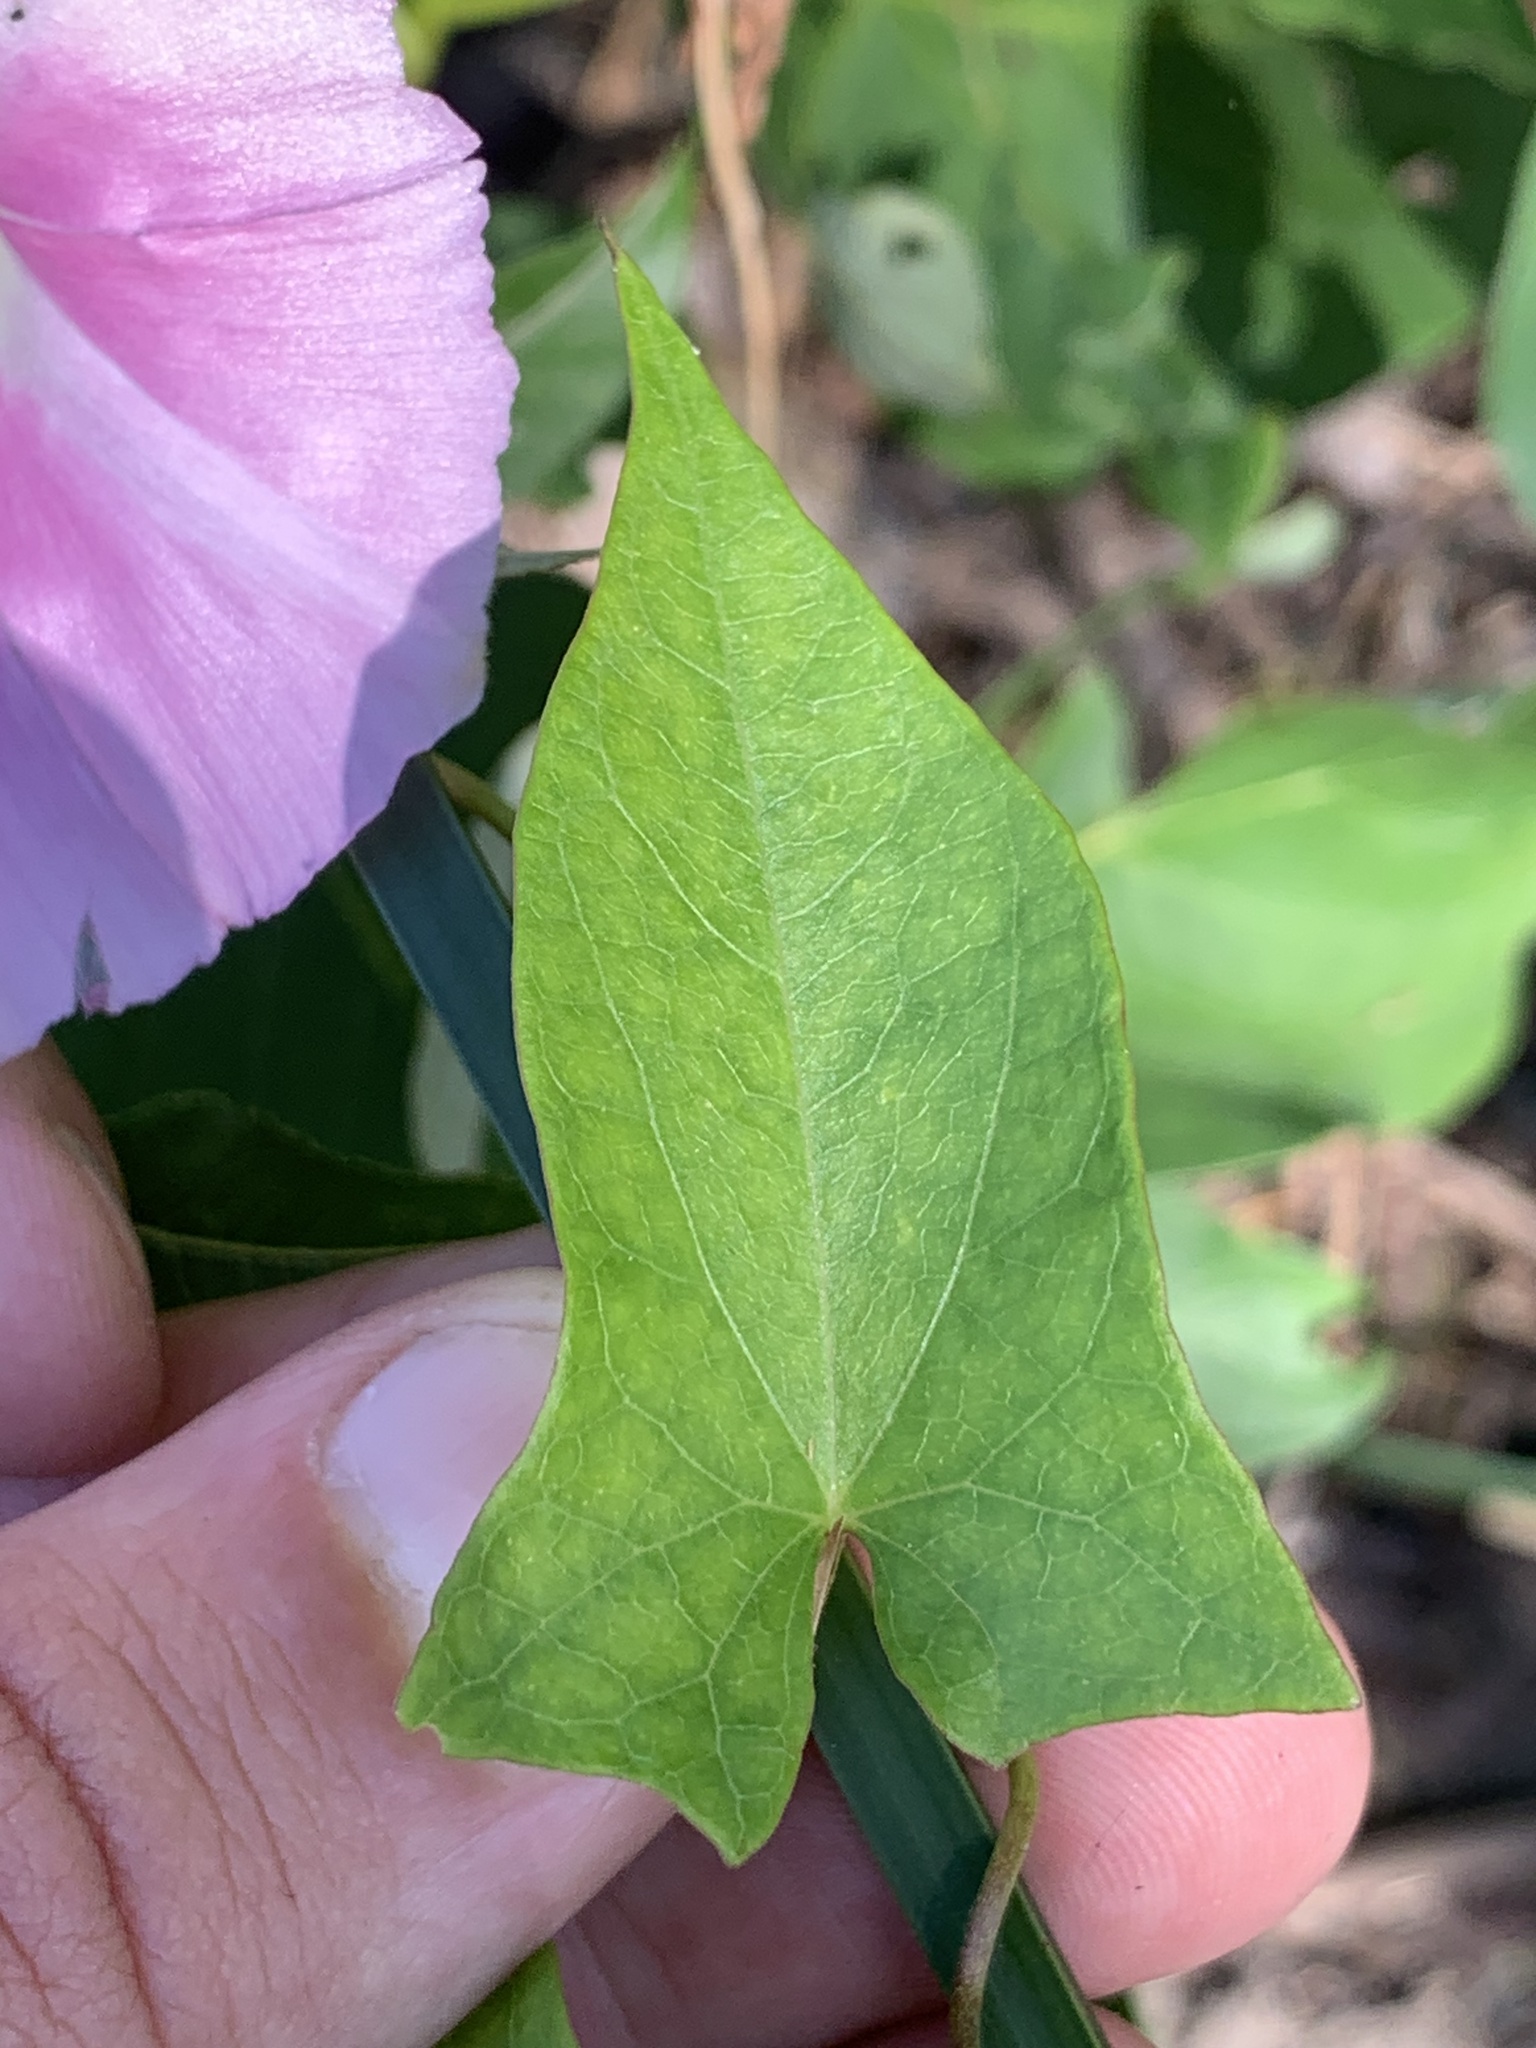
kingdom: Plantae
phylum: Tracheophyta
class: Magnoliopsida
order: Solanales
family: Convolvulaceae
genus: Calystegia
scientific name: Calystegia sepium
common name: Hedge bindweed
